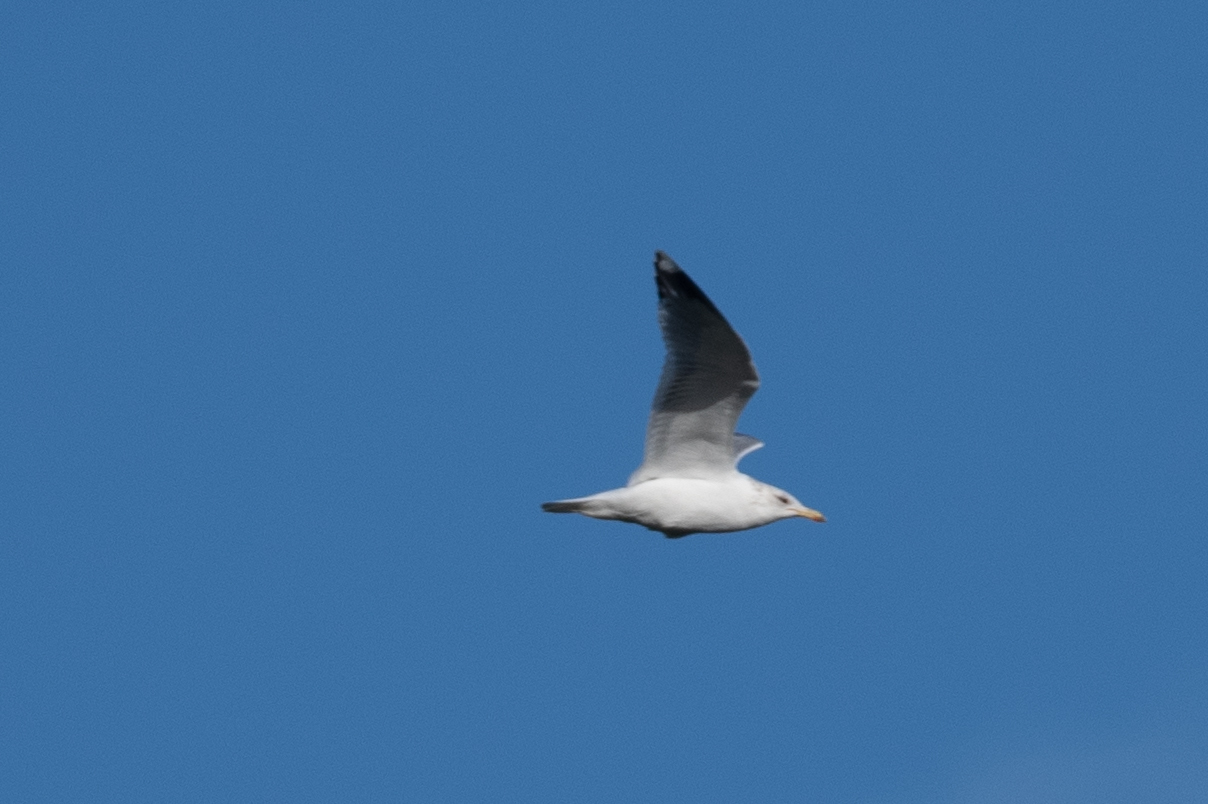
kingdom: Animalia
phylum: Chordata
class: Aves
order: Charadriiformes
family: Laridae
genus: Larus
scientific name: Larus californicus
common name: California gull
